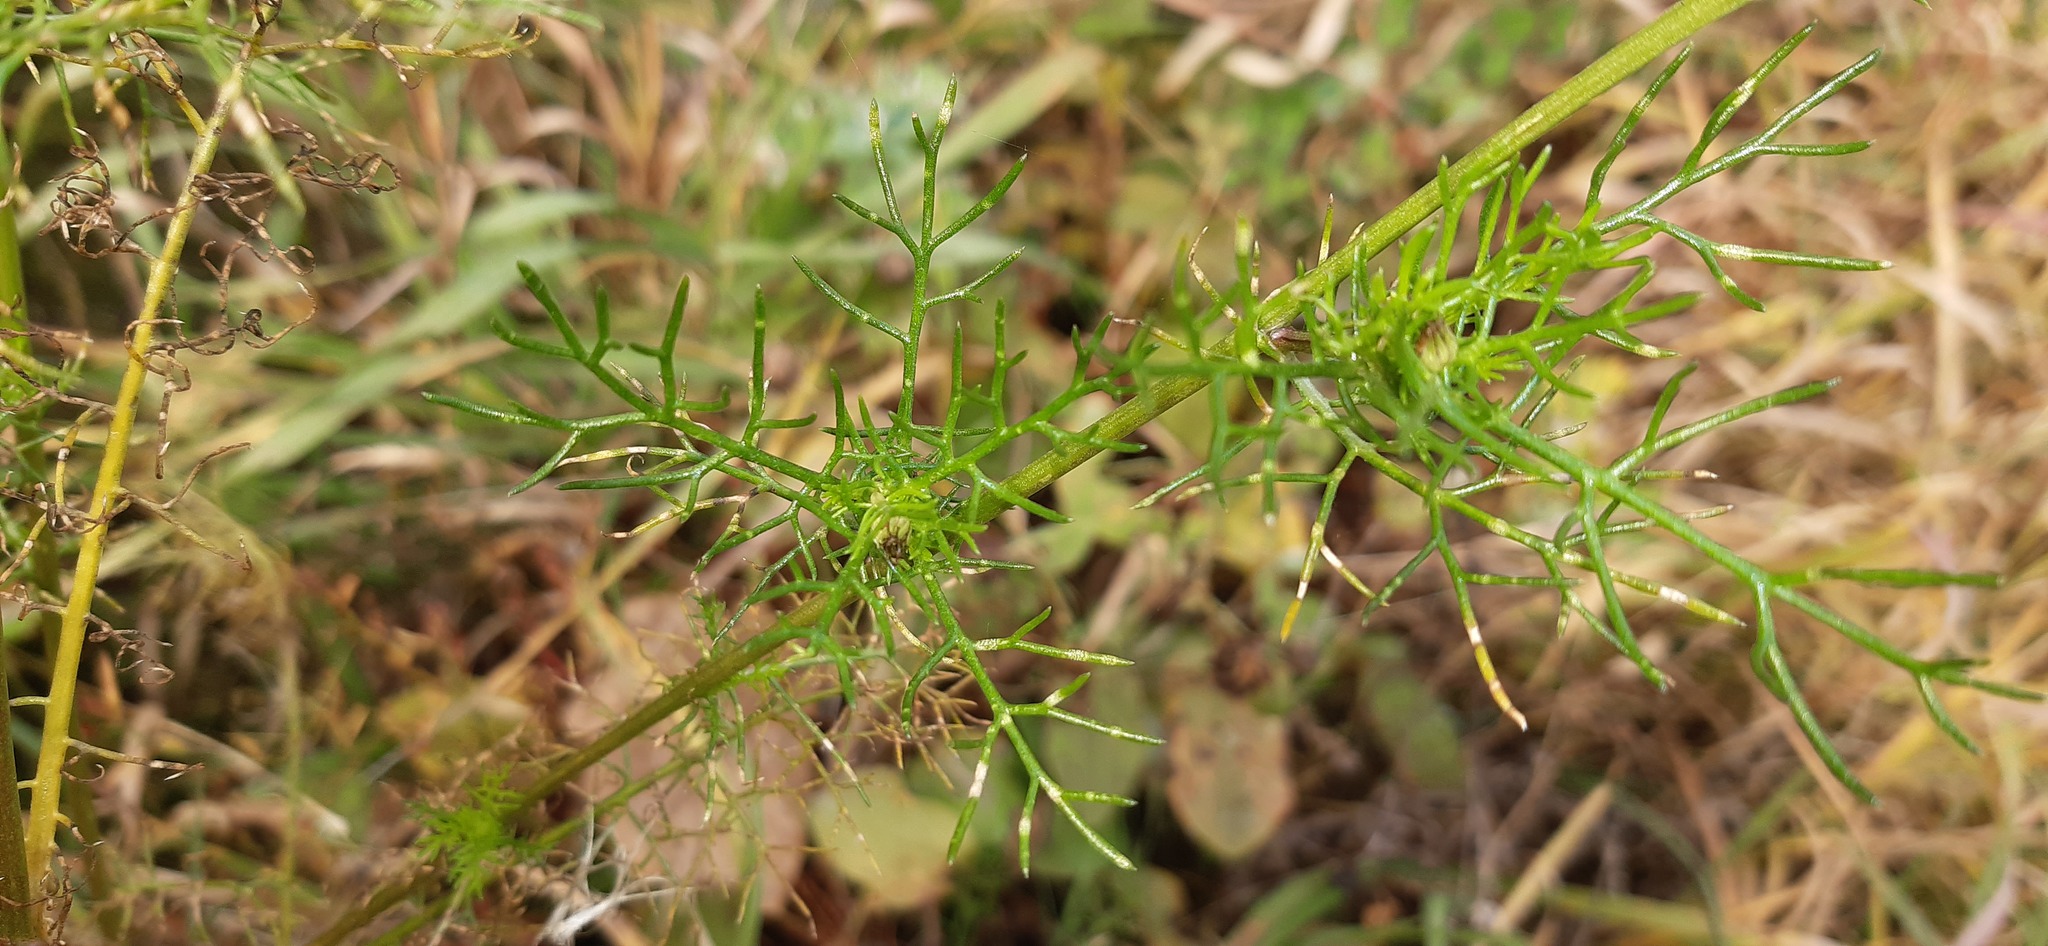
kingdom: Plantae
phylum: Tracheophyta
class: Magnoliopsida
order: Asterales
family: Asteraceae
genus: Tripleurospermum
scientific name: Tripleurospermum inodorum
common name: Scentless mayweed
